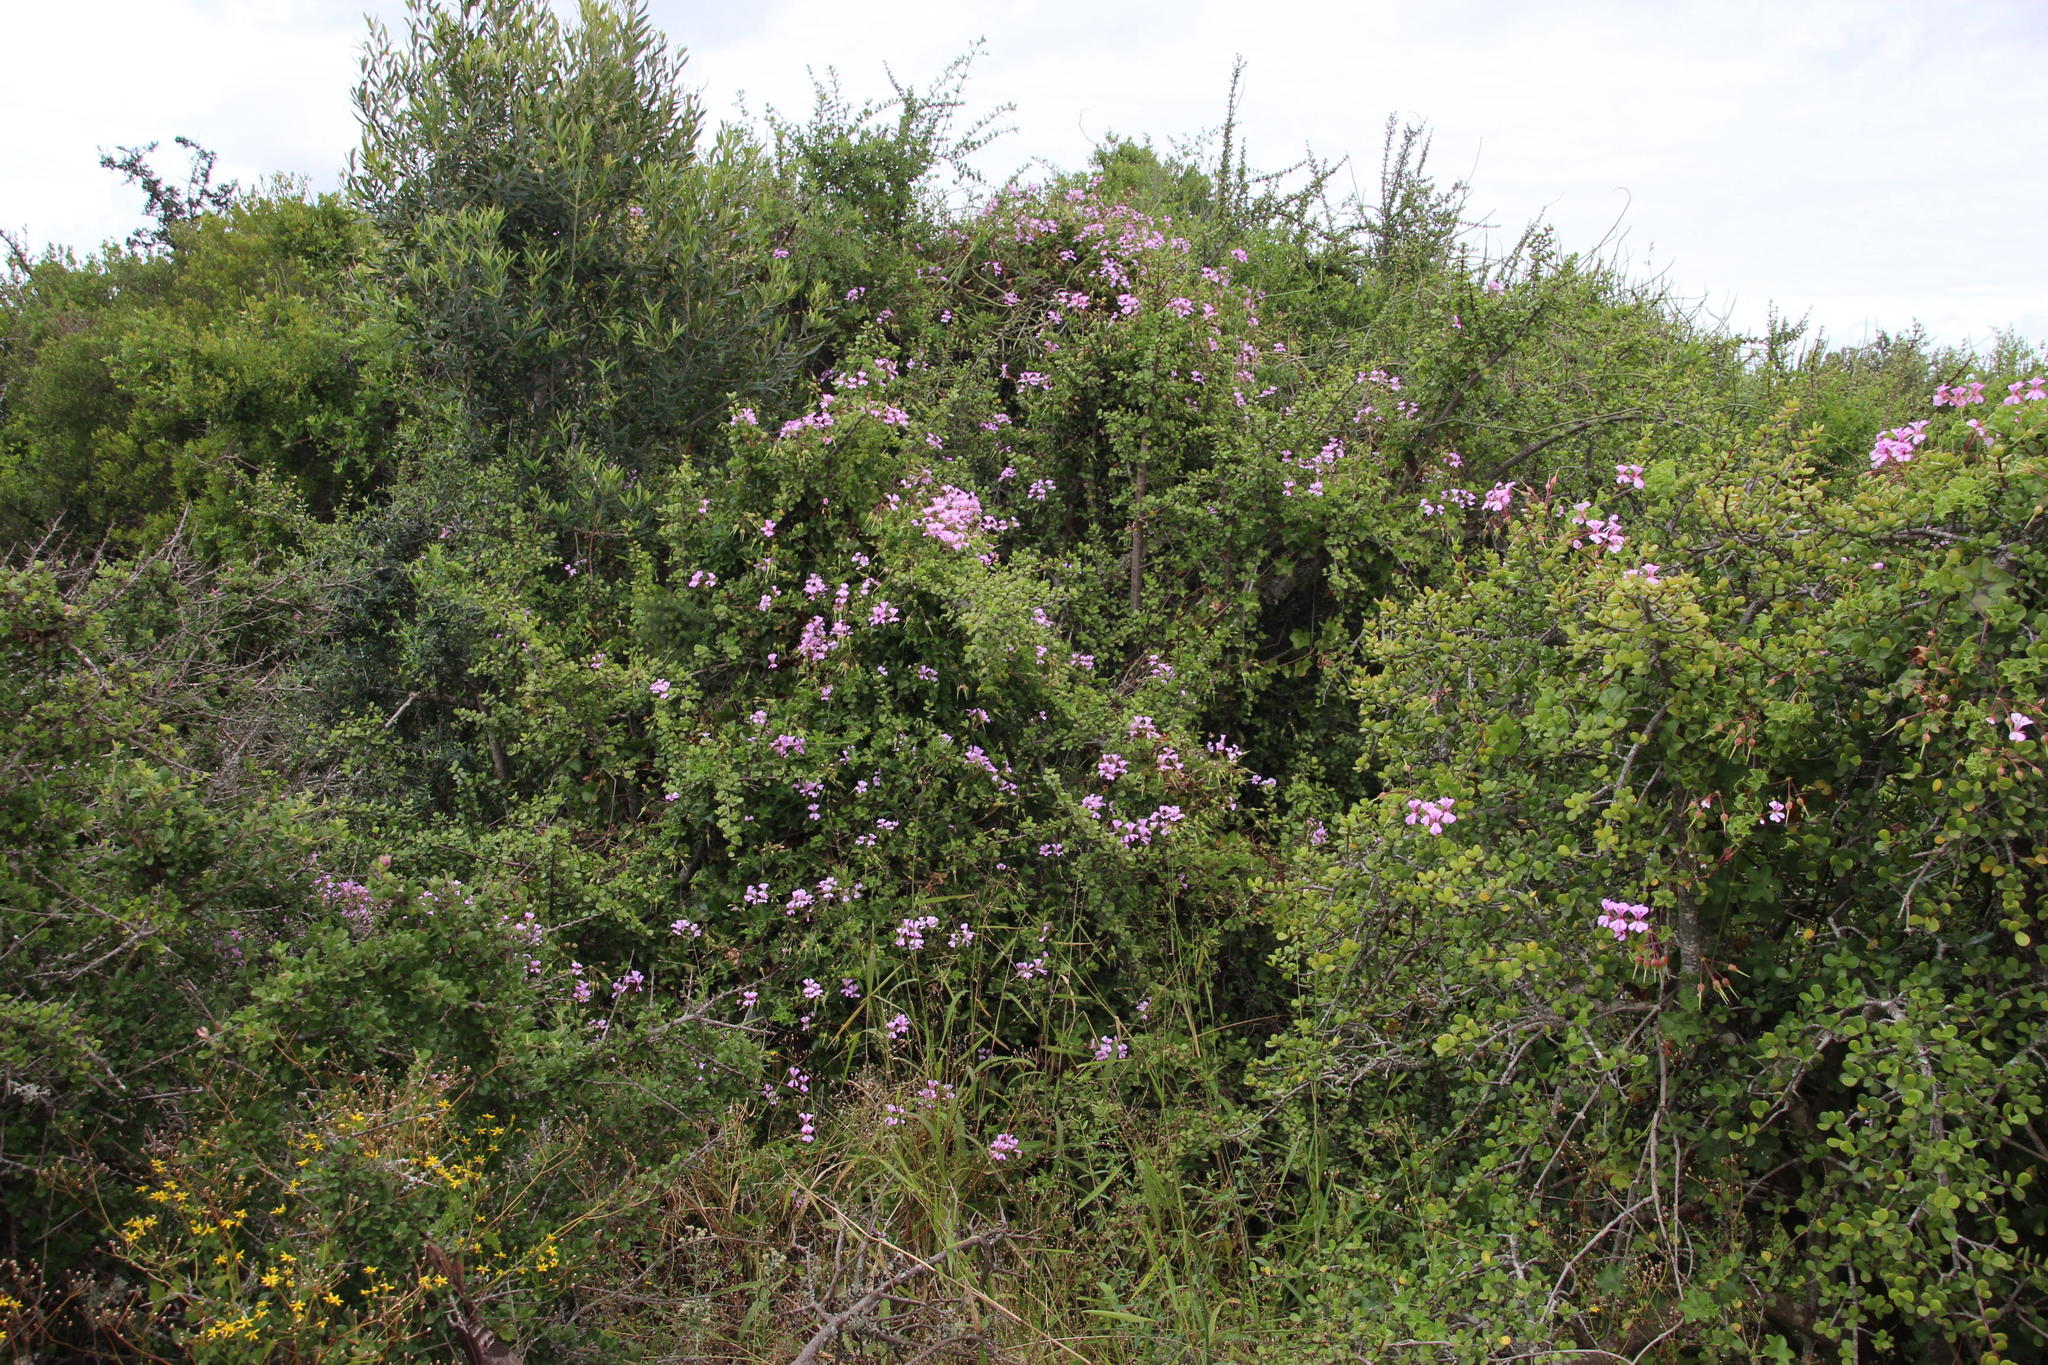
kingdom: Plantae
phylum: Tracheophyta
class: Magnoliopsida
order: Geraniales
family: Geraniaceae
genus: Pelargonium
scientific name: Pelargonium peltatum
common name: Ivyleaf geranium
